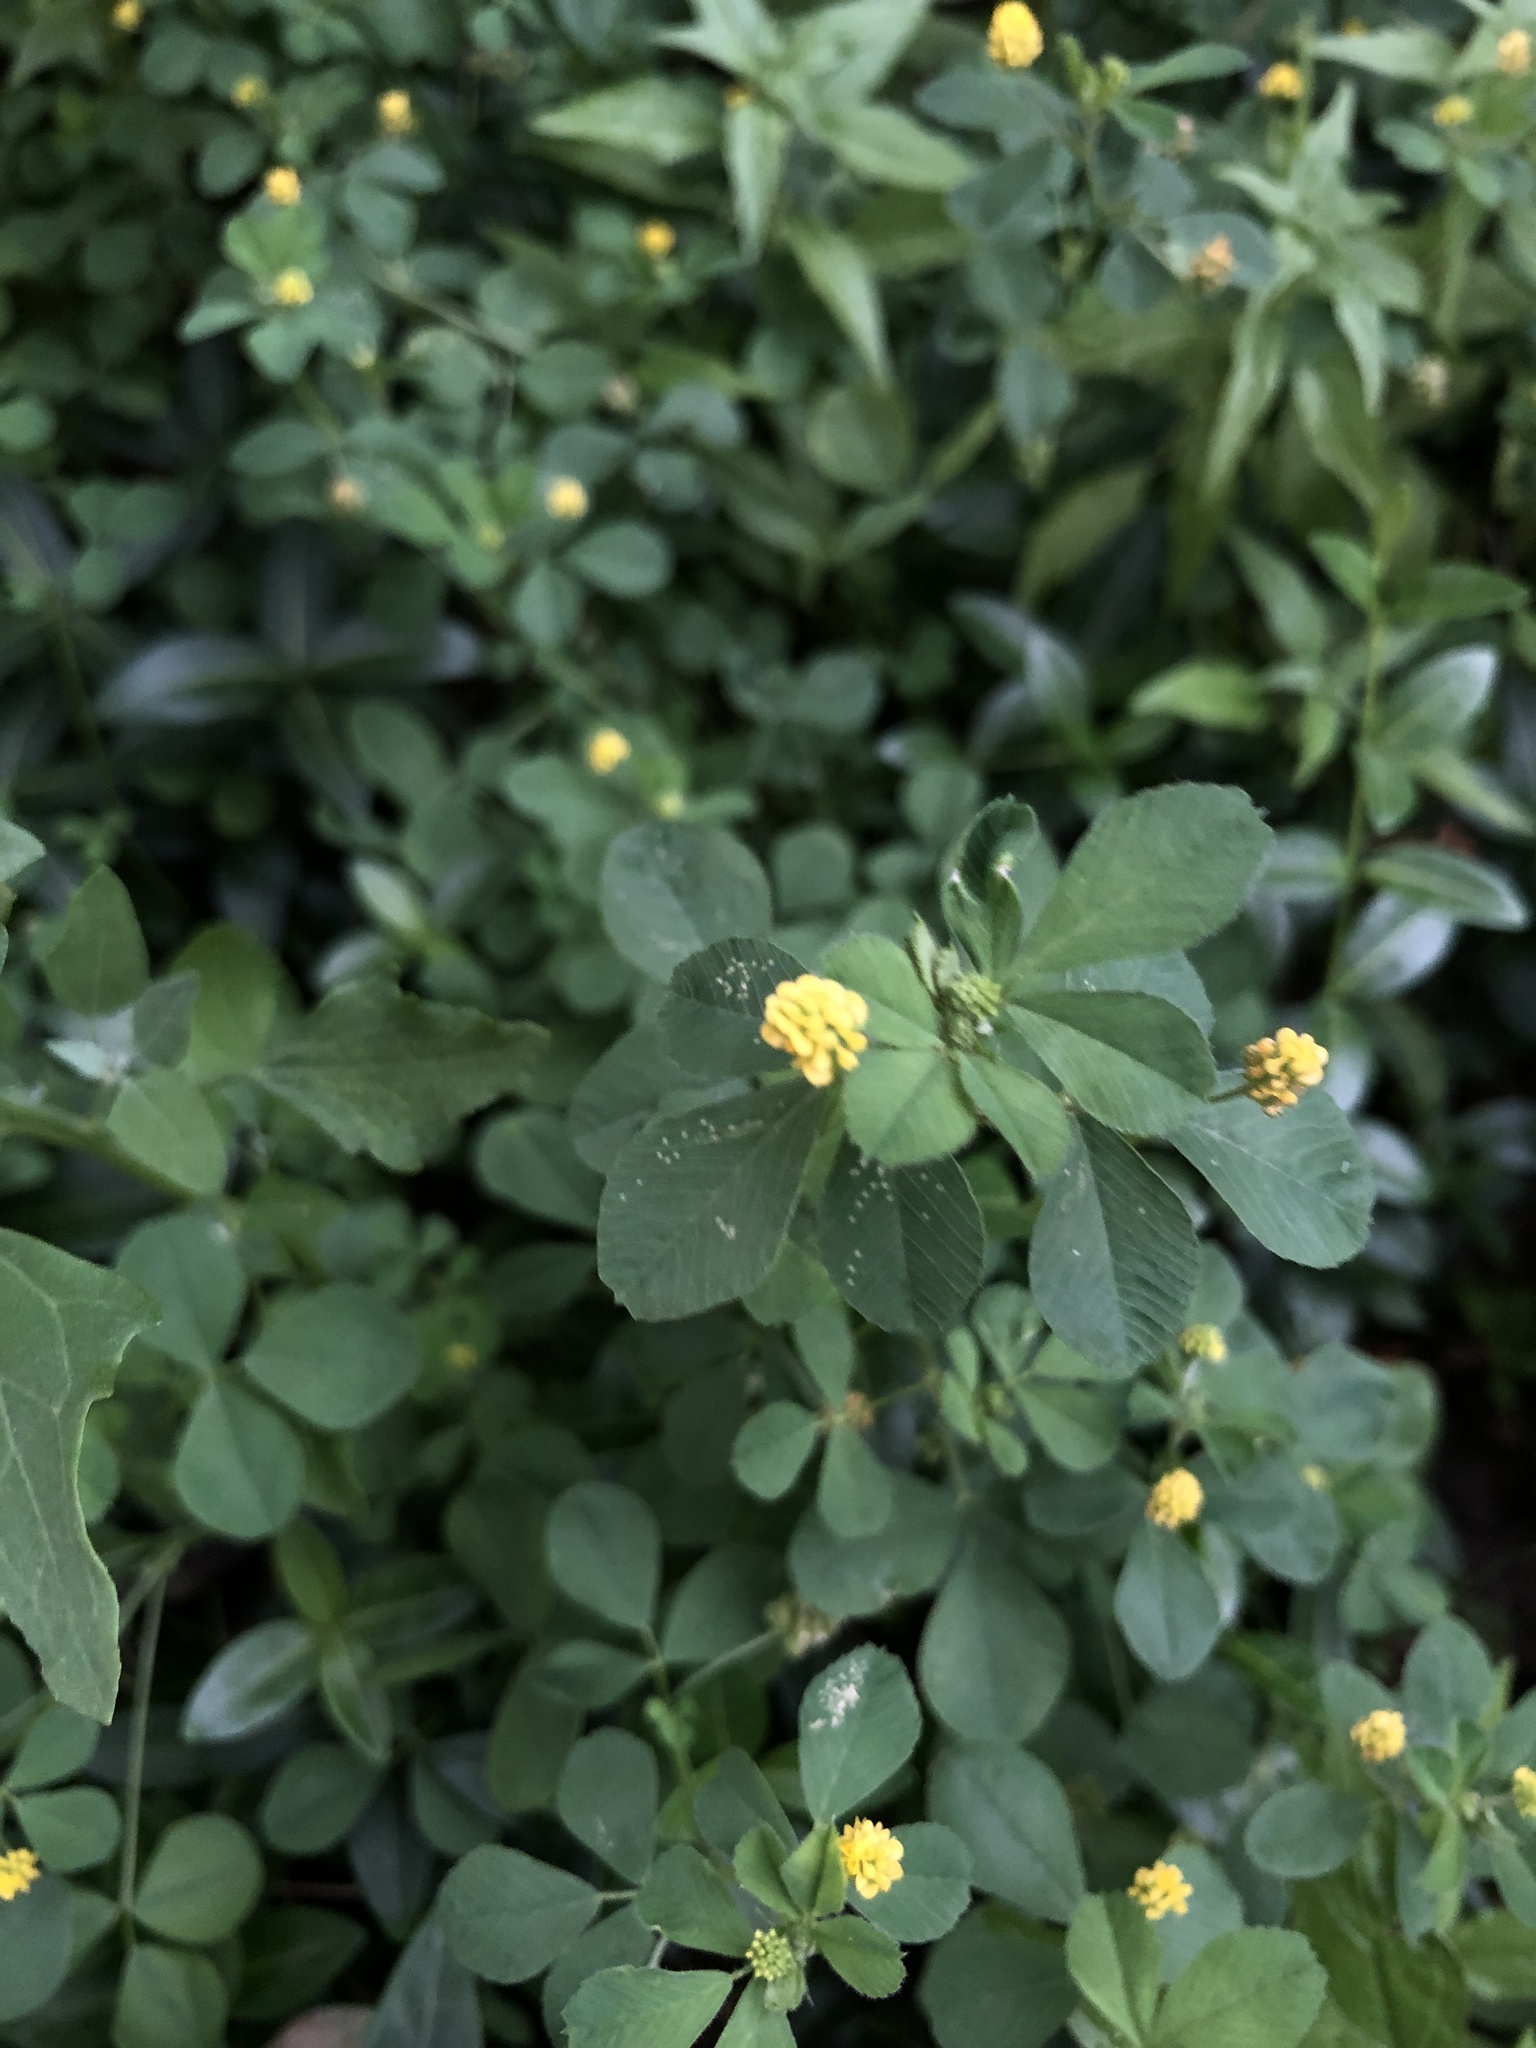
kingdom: Plantae
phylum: Tracheophyta
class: Magnoliopsida
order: Fabales
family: Fabaceae
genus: Medicago
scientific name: Medicago lupulina
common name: Black medick
